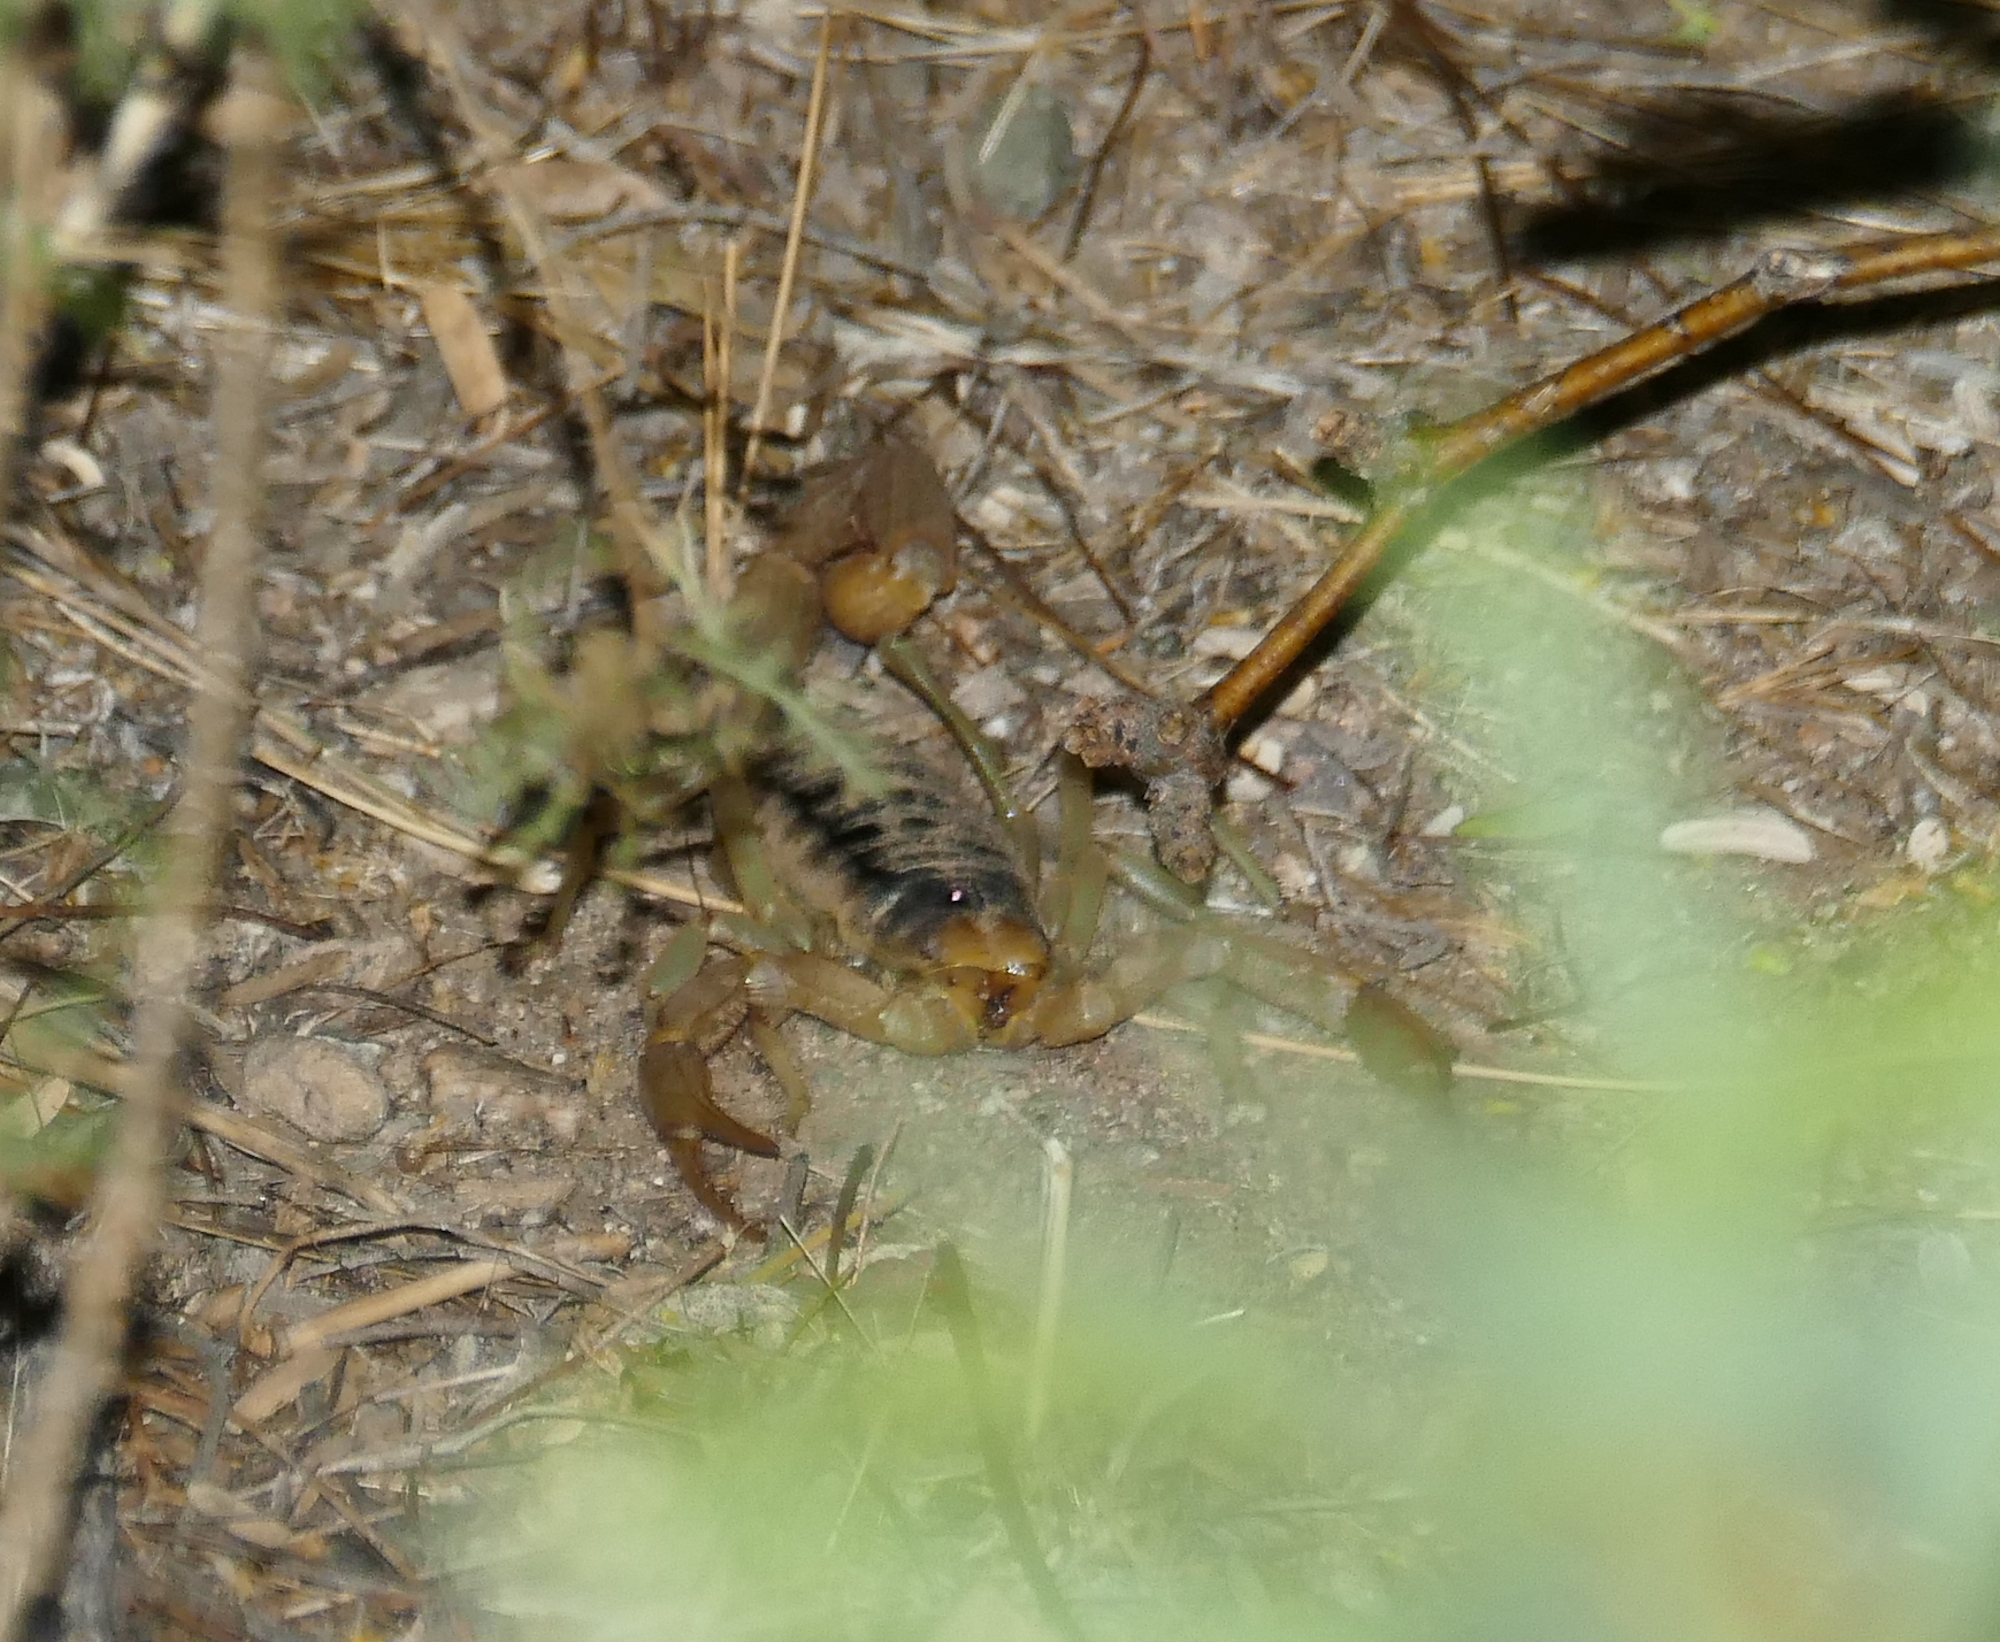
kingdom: Animalia
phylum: Arthropoda
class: Arachnida
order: Scorpiones
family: Hadruridae
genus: Hadrurus
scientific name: Hadrurus arizonensis
